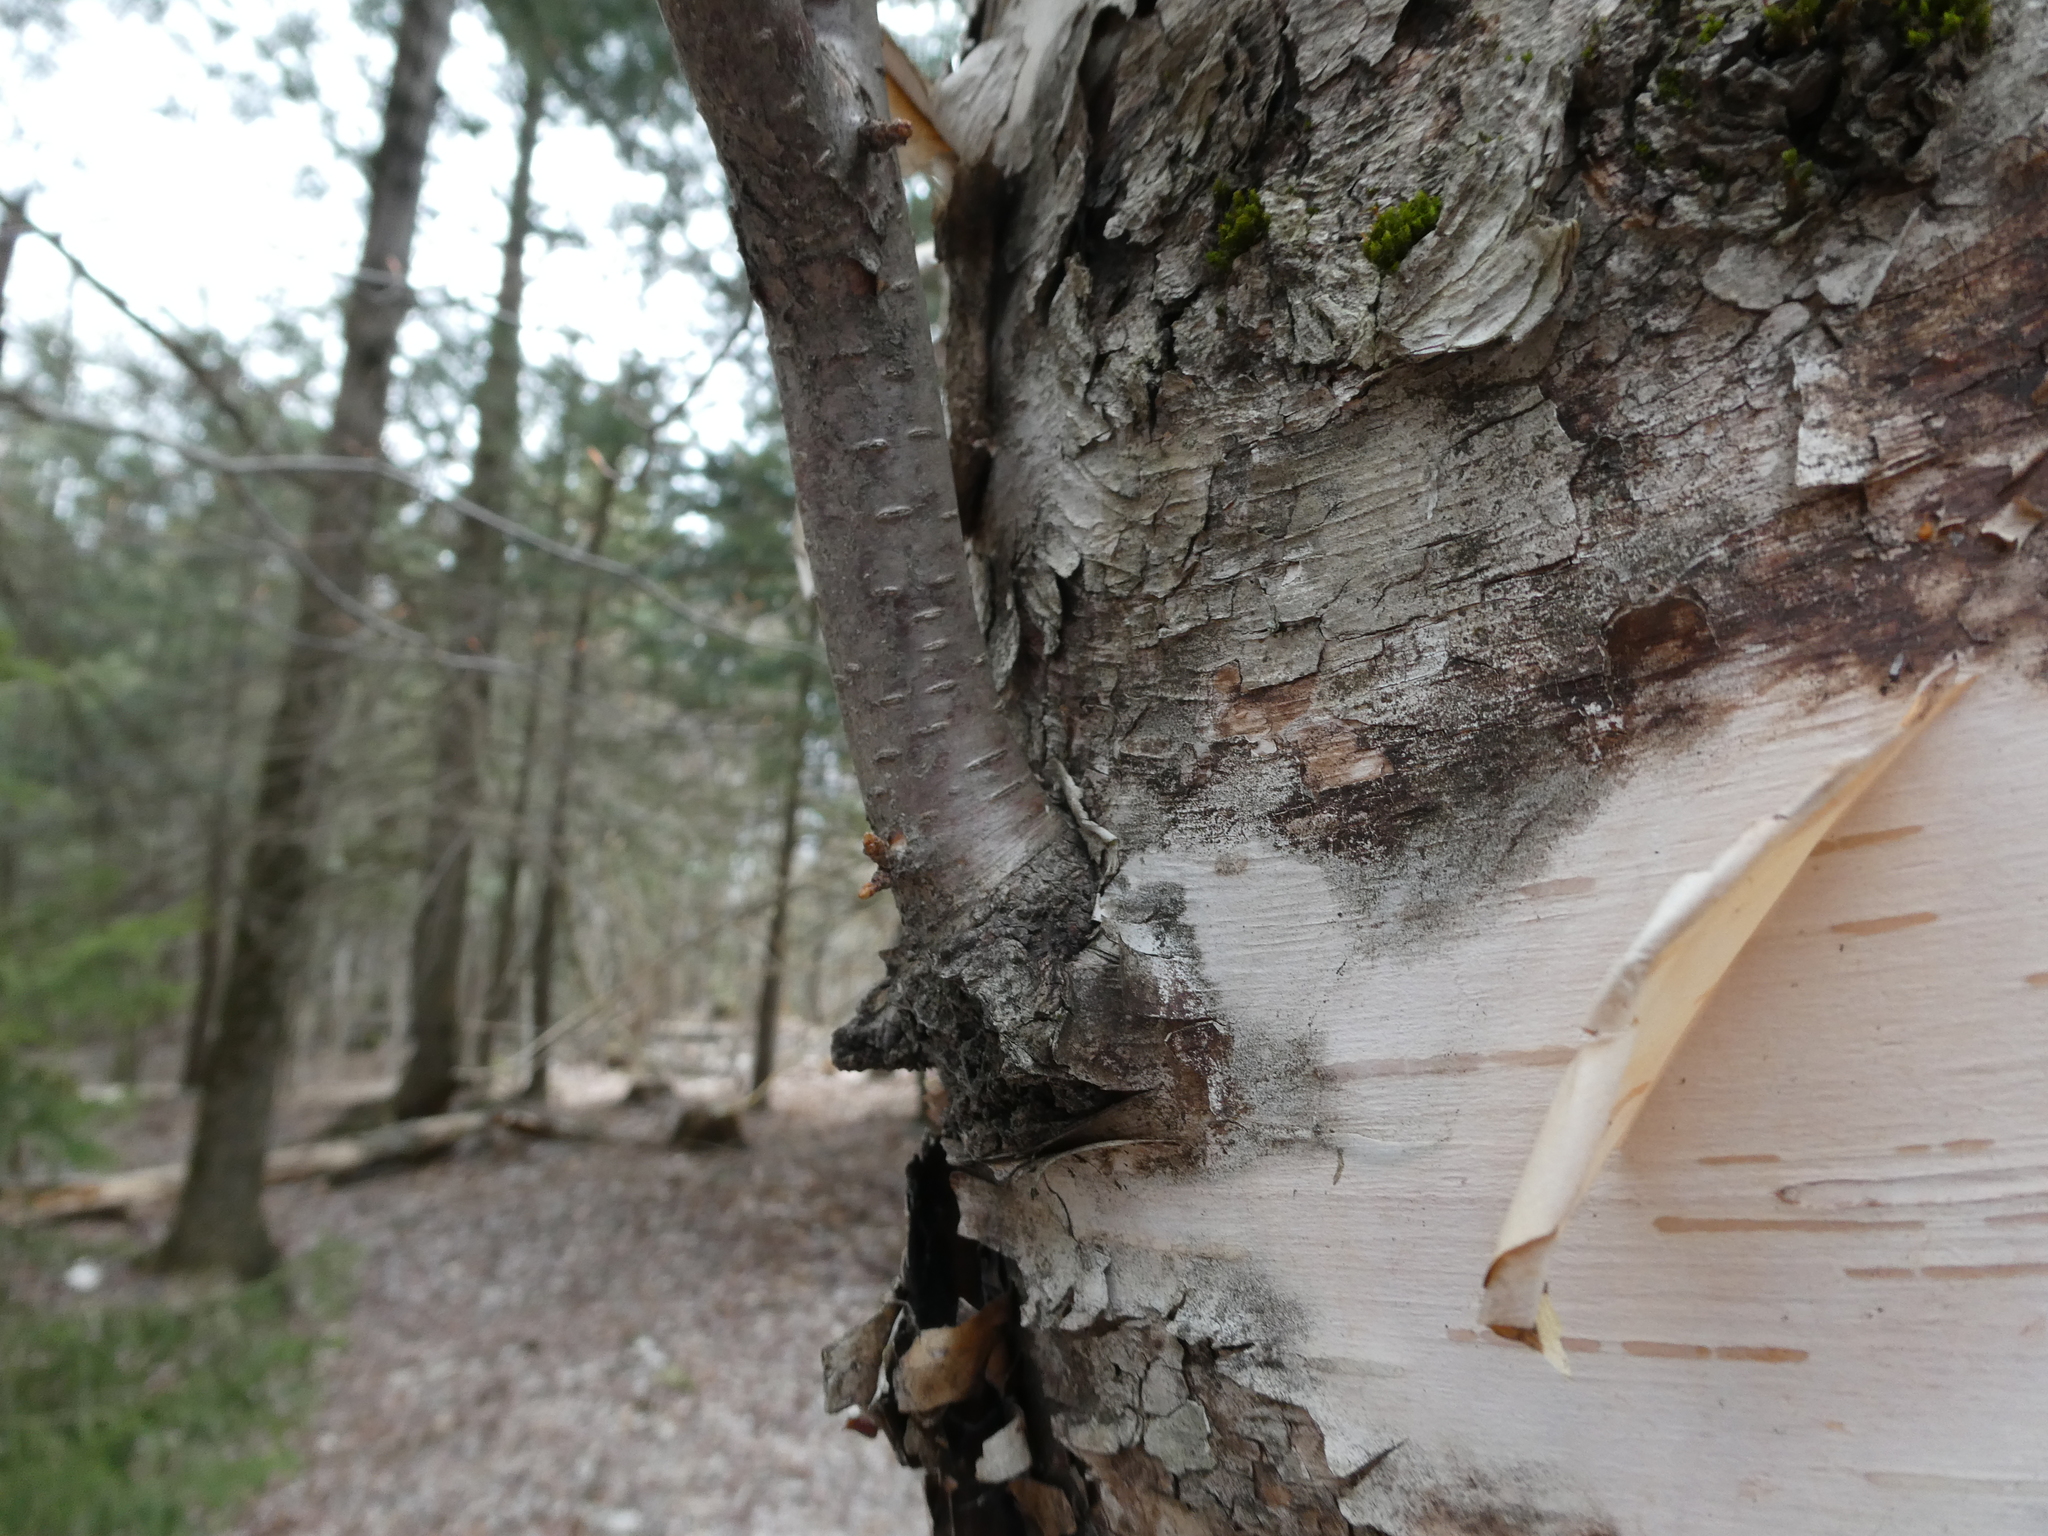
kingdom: Plantae
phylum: Tracheophyta
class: Magnoliopsida
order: Fagales
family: Betulaceae
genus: Betula
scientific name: Betula papyrifera
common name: Paper birch
